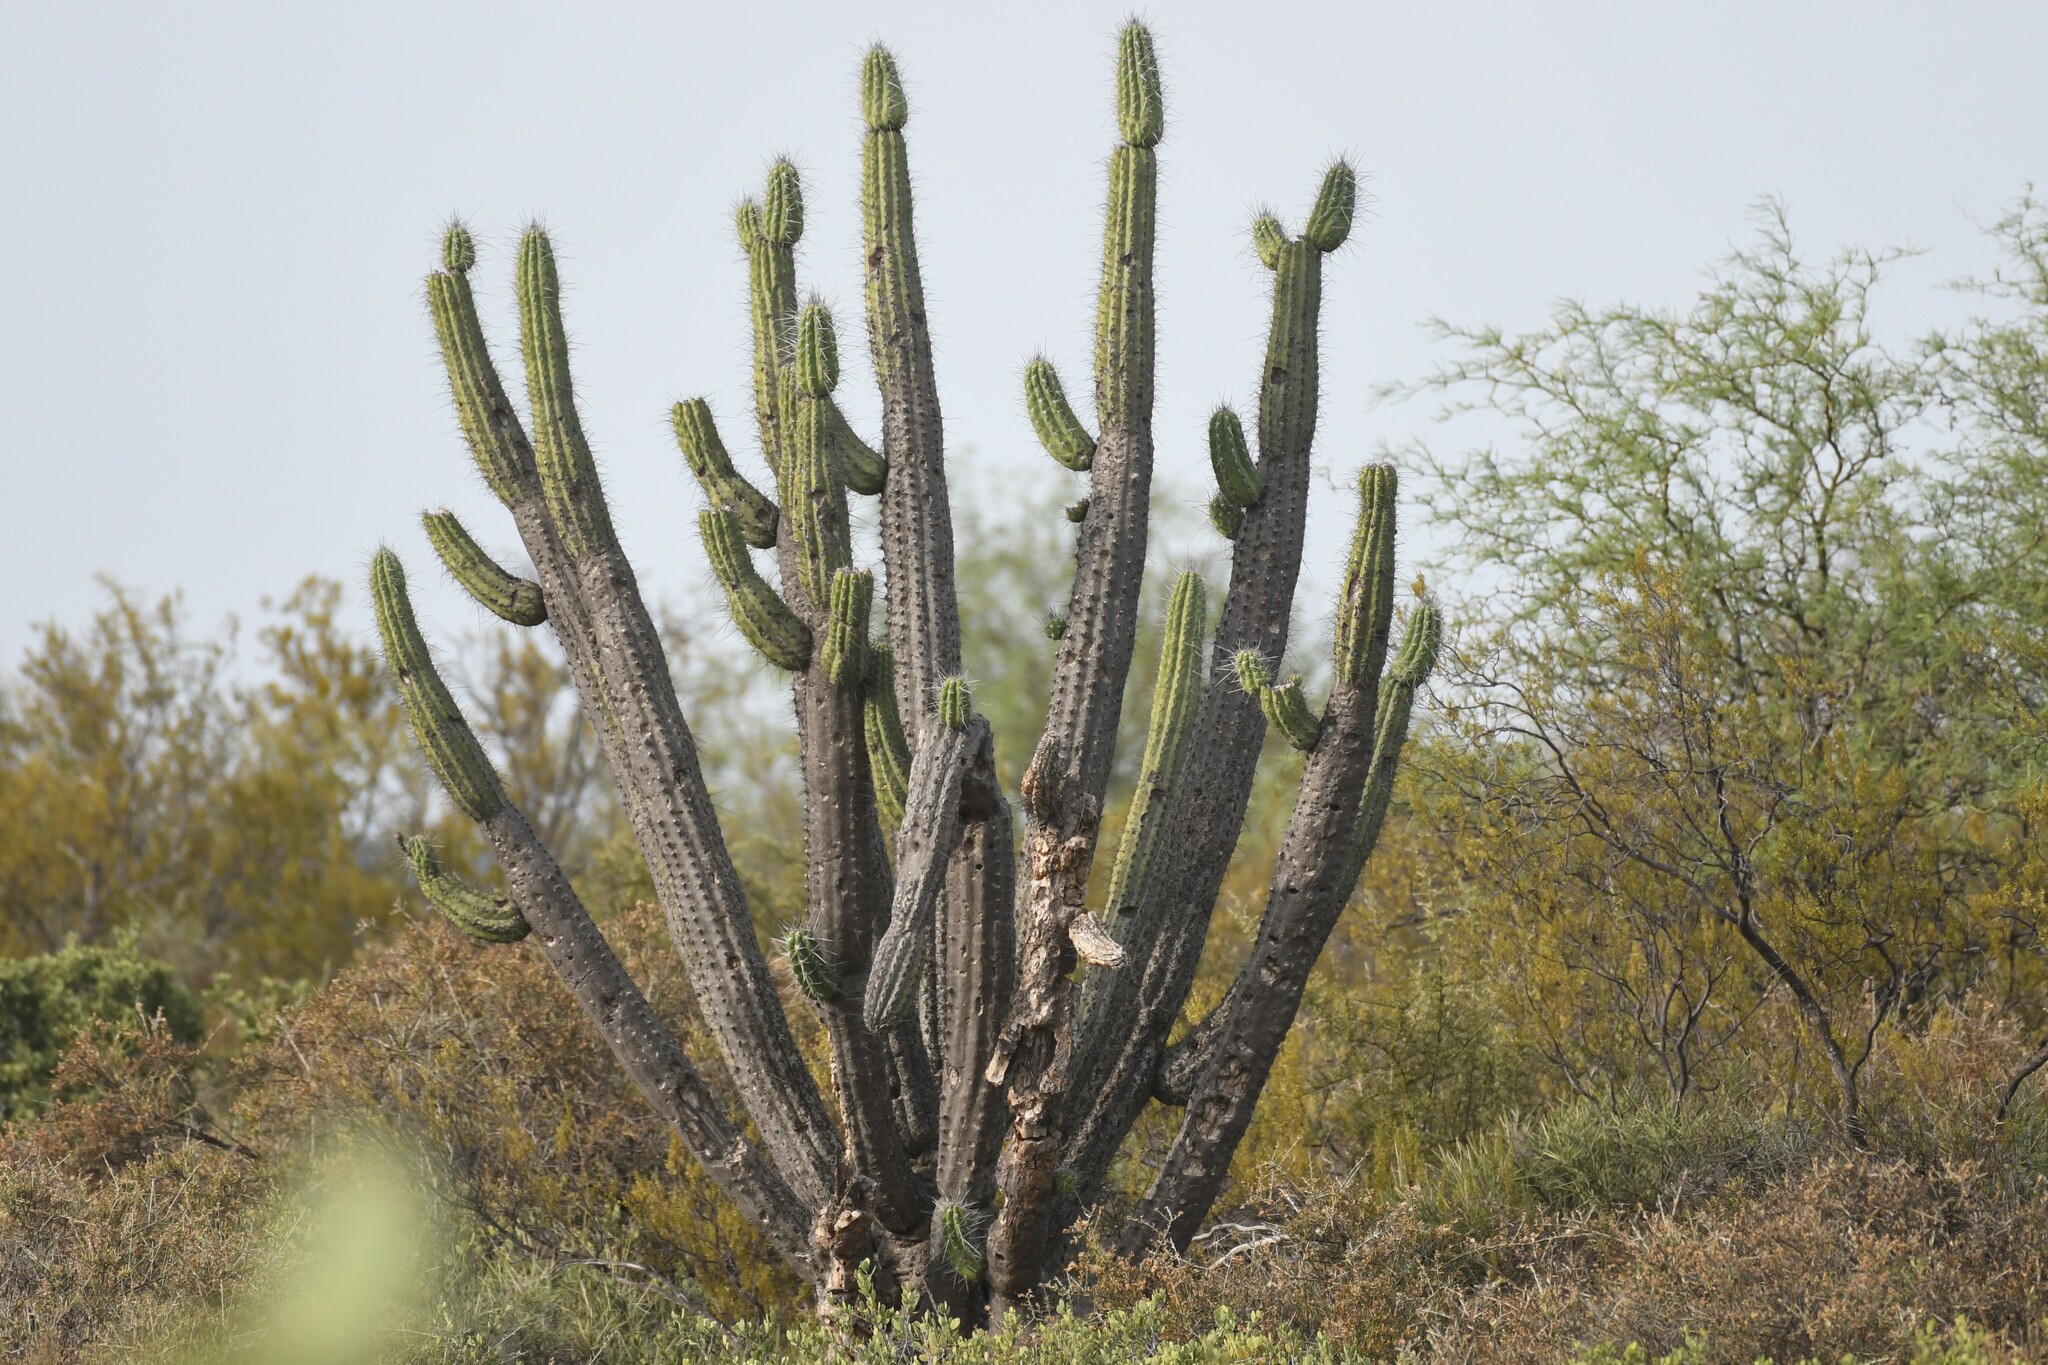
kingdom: Plantae
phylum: Tracheophyta
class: Magnoliopsida
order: Caryophyllales
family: Cactaceae
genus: Stetsonia
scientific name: Stetsonia coryne
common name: Toothpick cactus
